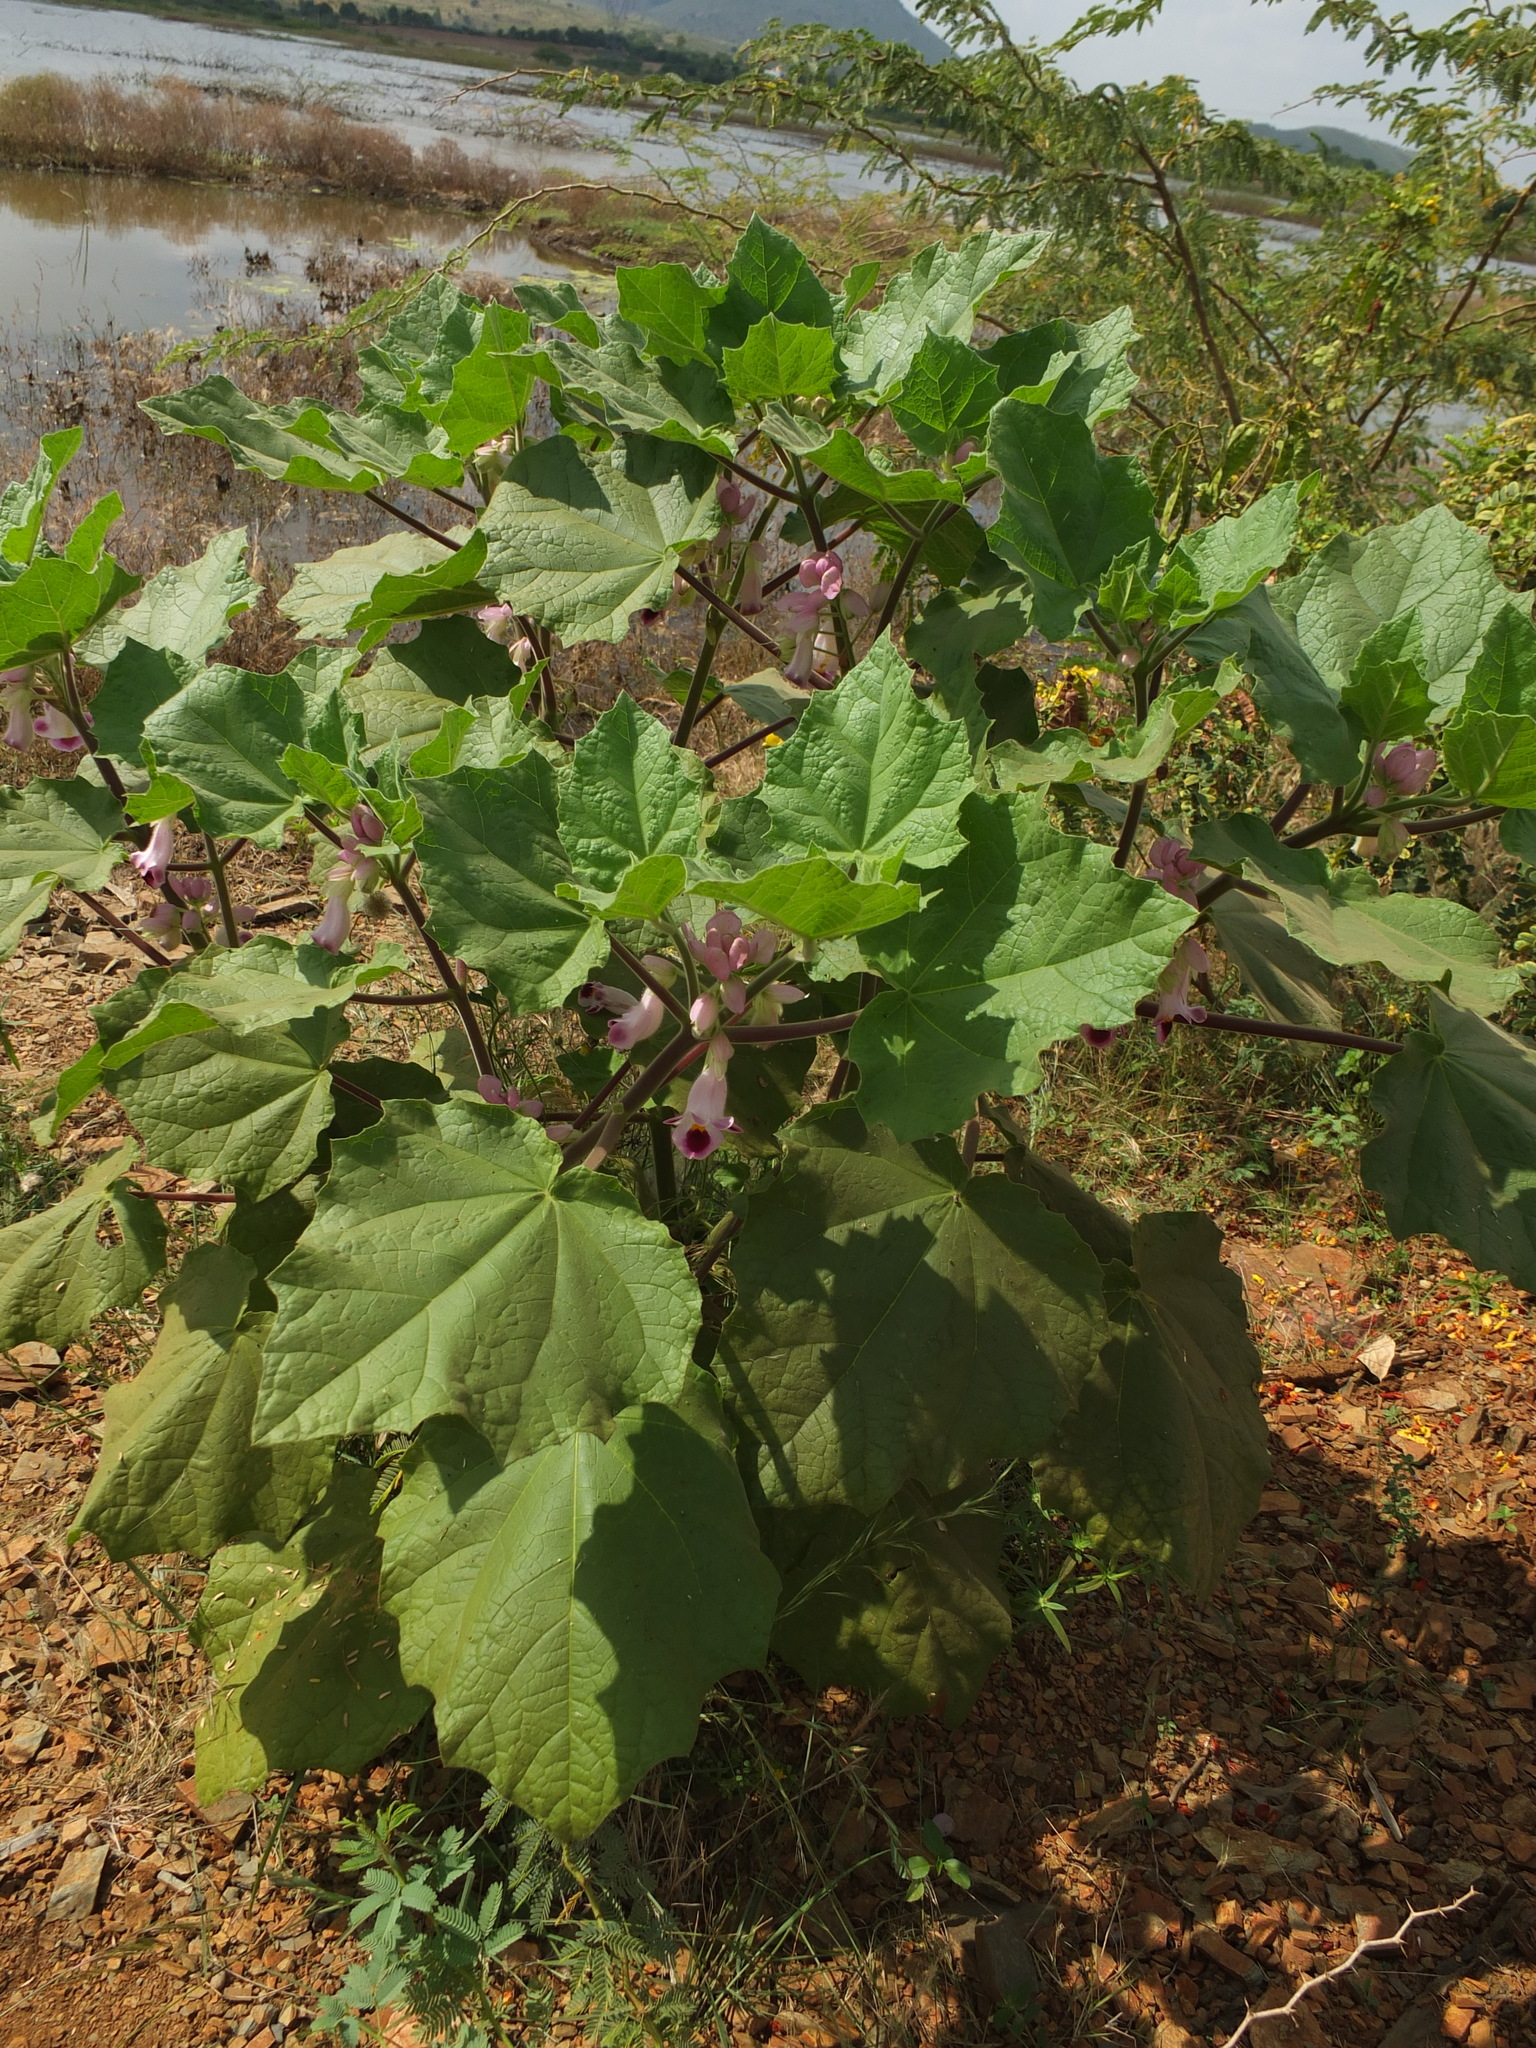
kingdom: Plantae
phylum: Tracheophyta
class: Magnoliopsida
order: Lamiales
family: Martyniaceae
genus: Martynia
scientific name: Martynia annua
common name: Tiger's-claw
